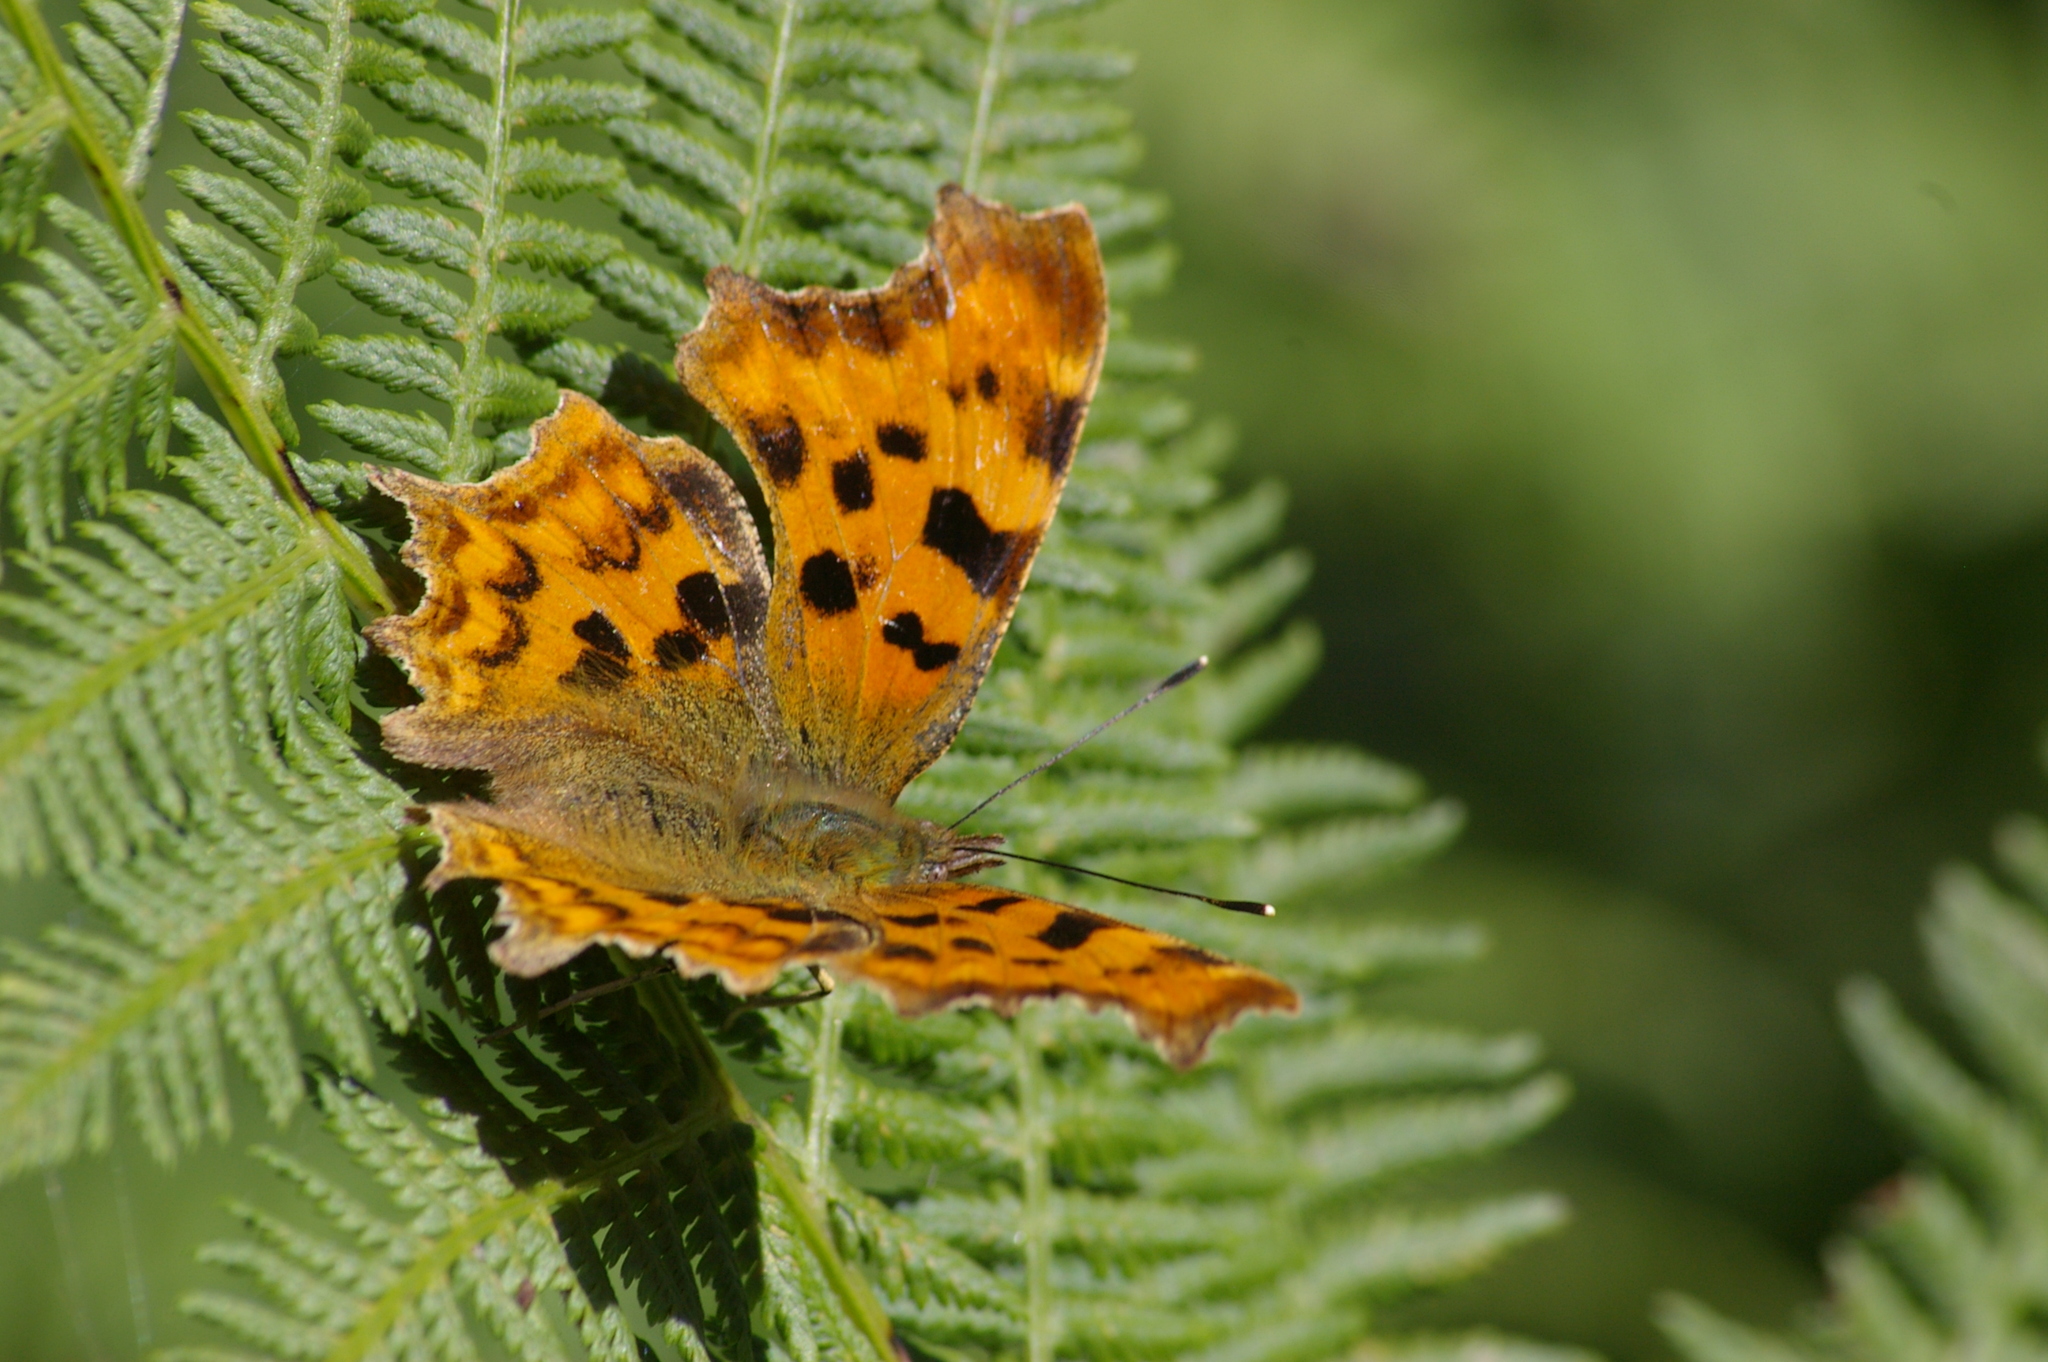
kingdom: Animalia
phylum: Arthropoda
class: Insecta
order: Lepidoptera
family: Nymphalidae
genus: Polygonia
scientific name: Polygonia c-album
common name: Comma
